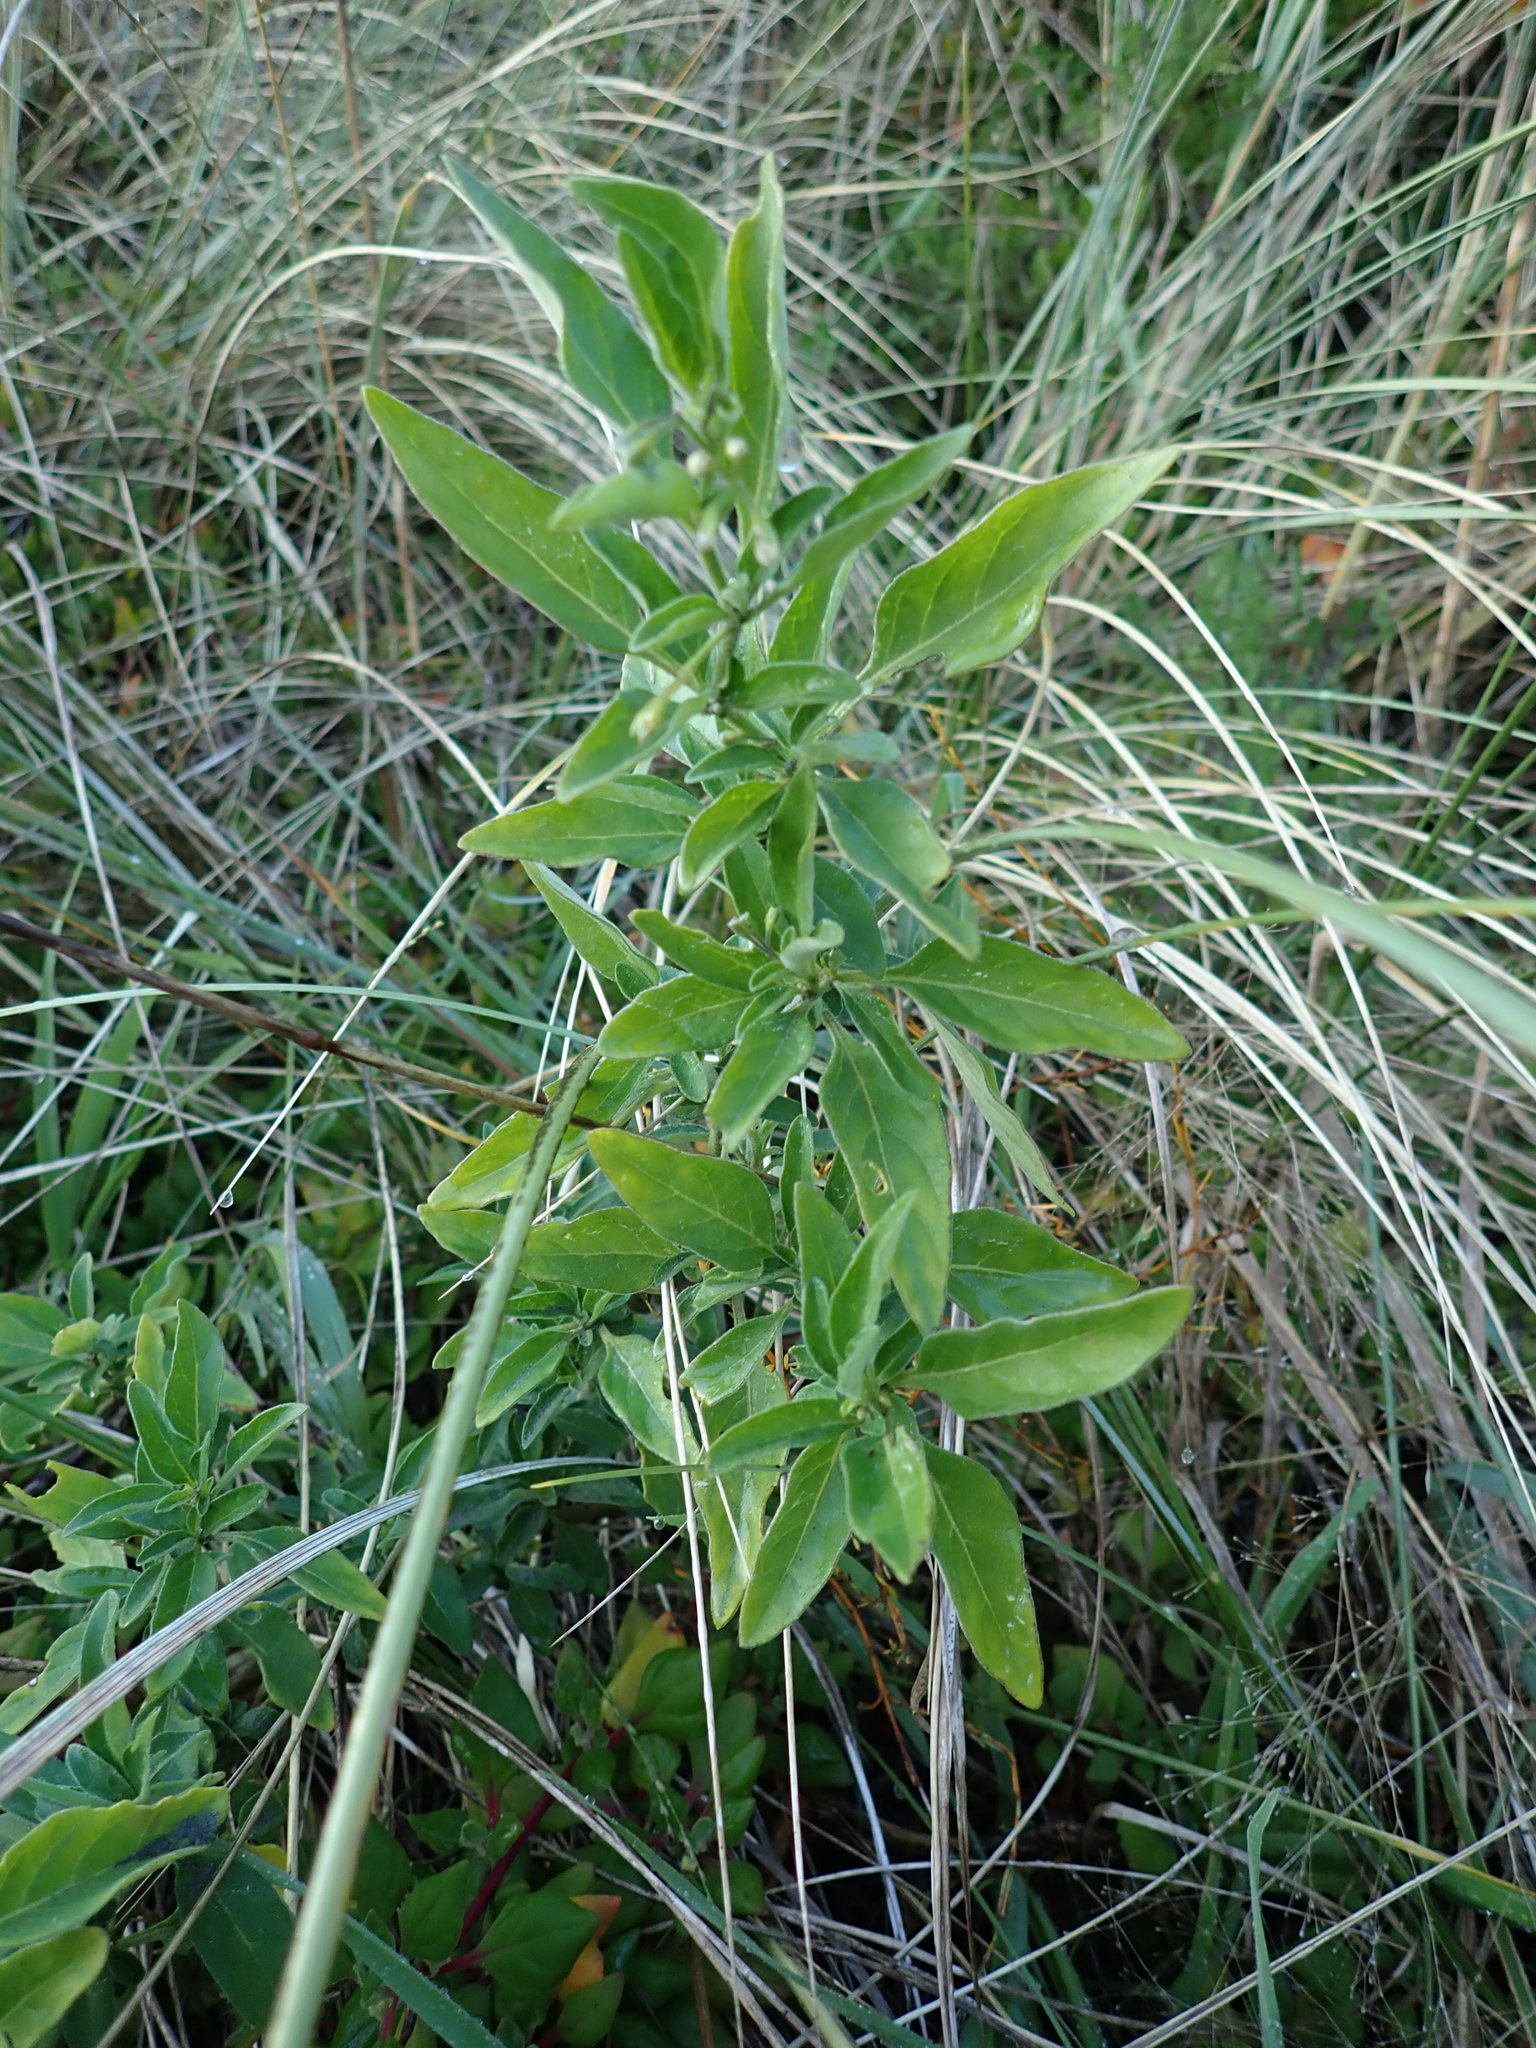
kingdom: Plantae
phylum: Tracheophyta
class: Magnoliopsida
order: Solanales
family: Solanaceae
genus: Solanum
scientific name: Solanum chenopodioides
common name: Tall nightshade
